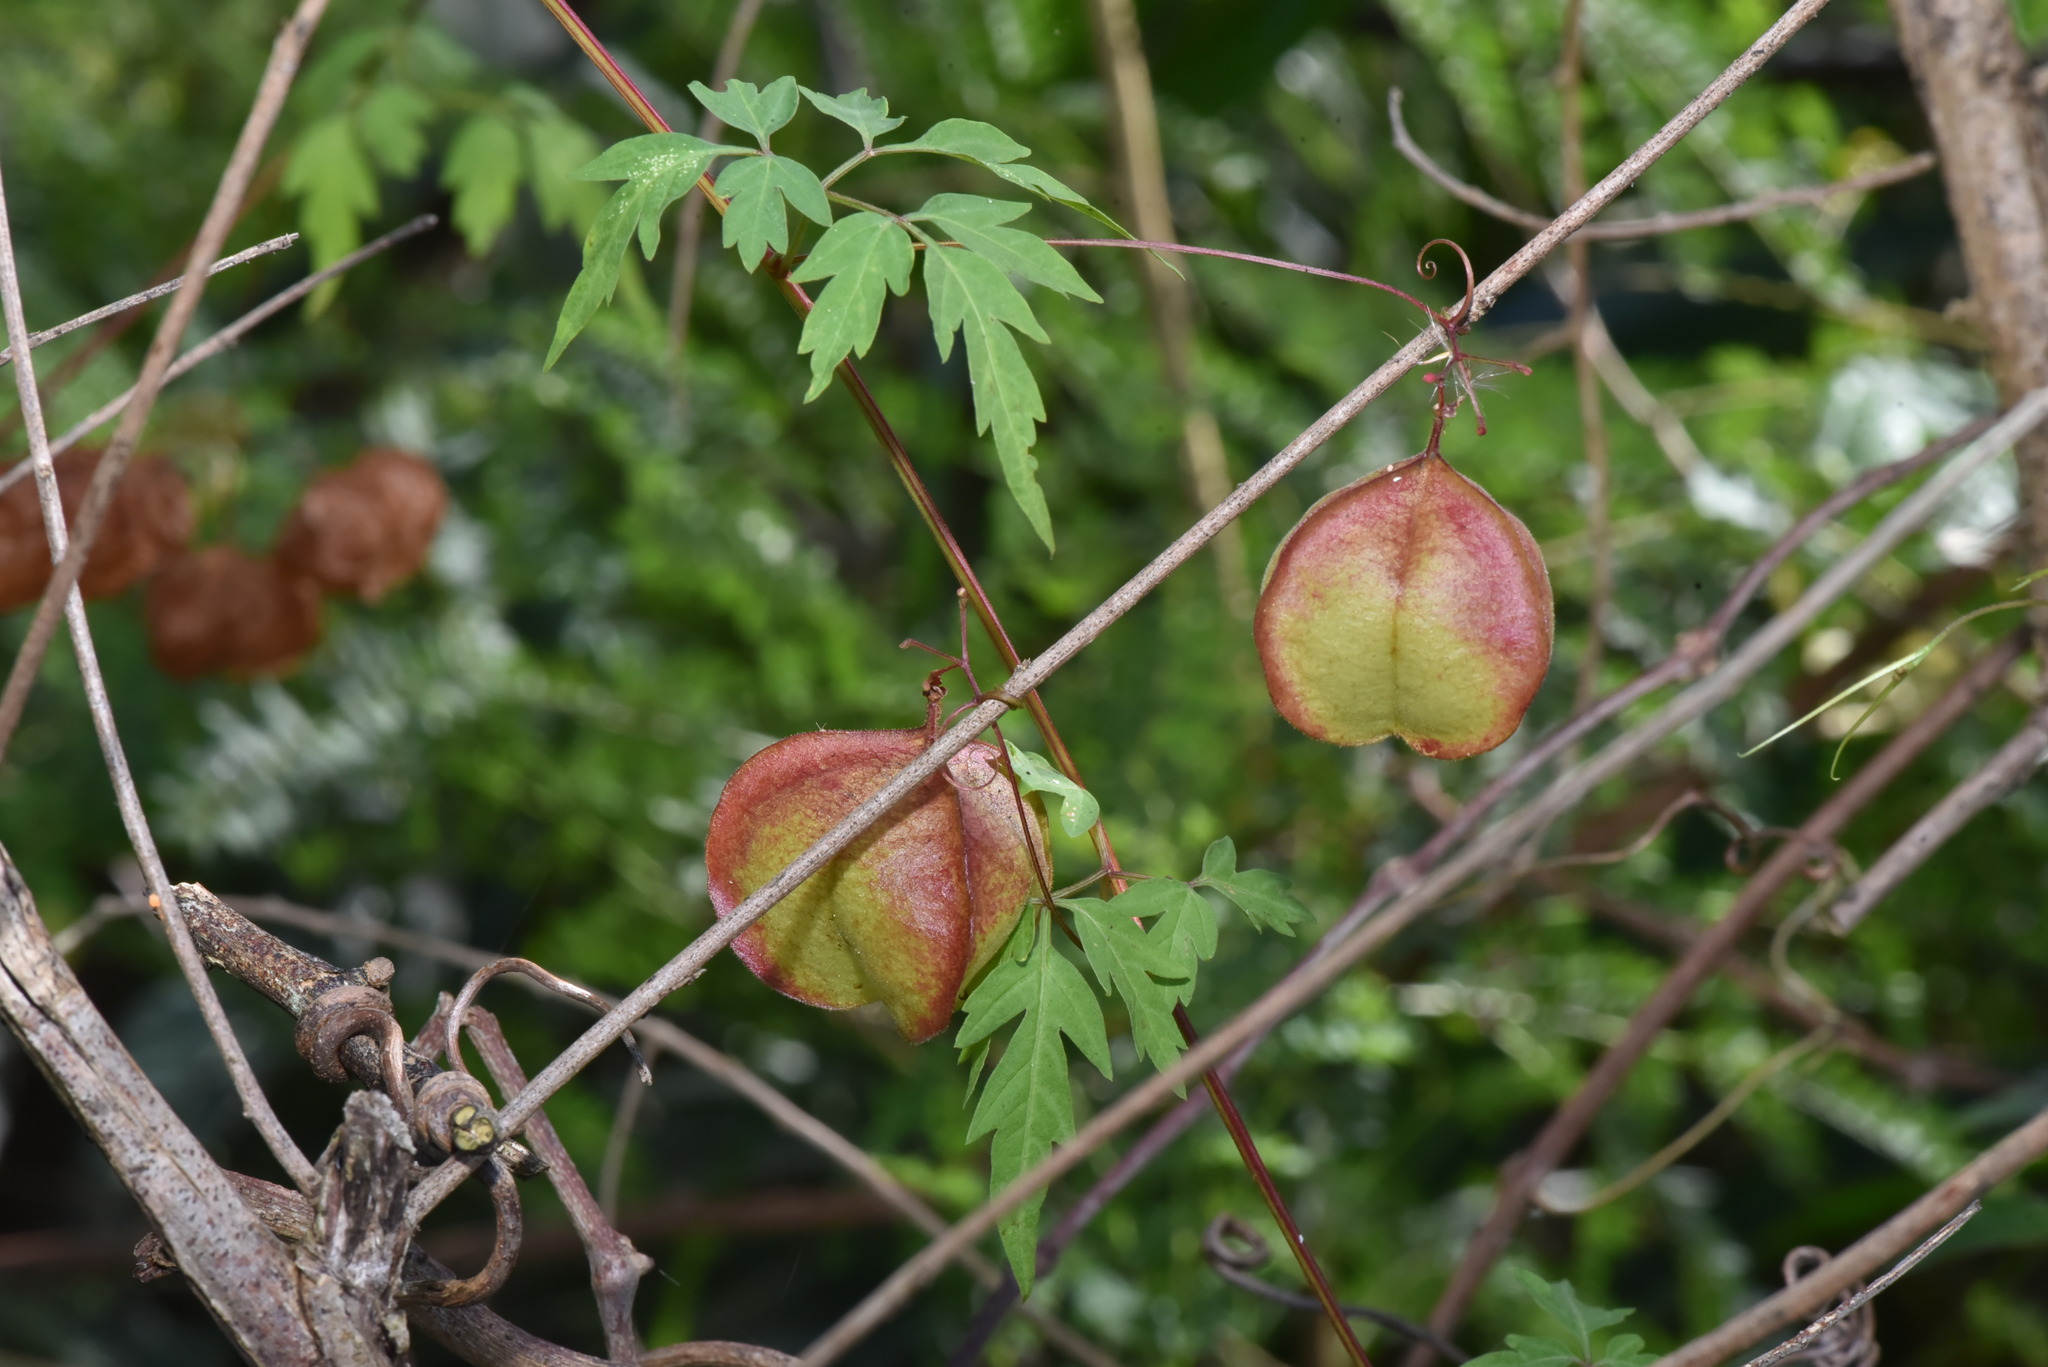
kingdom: Plantae
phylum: Tracheophyta
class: Magnoliopsida
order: Sapindales
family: Sapindaceae
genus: Cardiospermum
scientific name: Cardiospermum halicacabum
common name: Balloon vine
